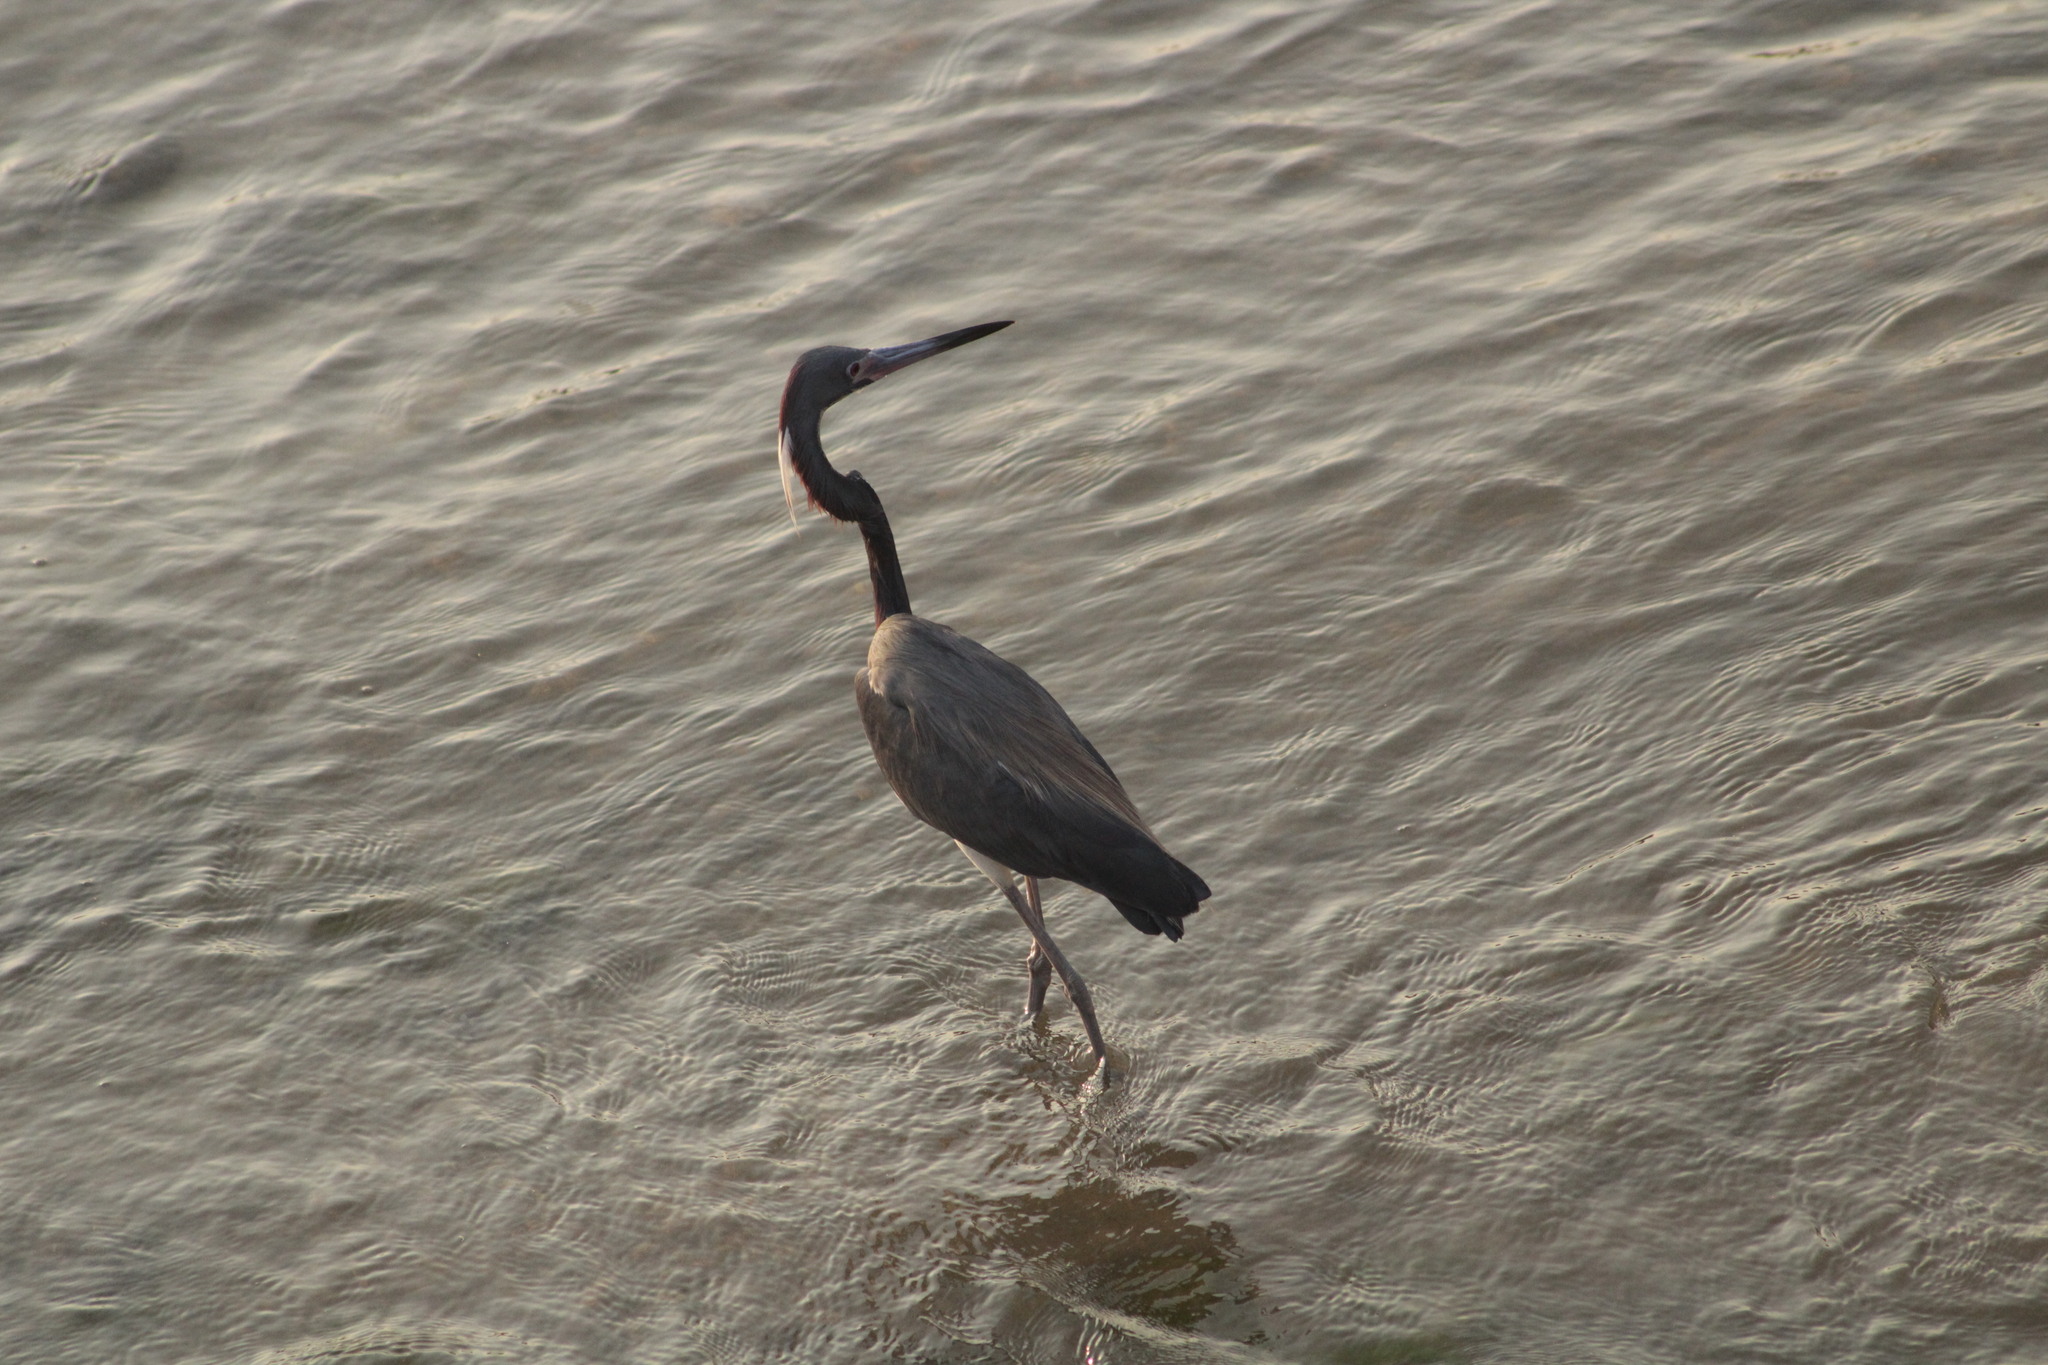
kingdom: Animalia
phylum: Chordata
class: Aves
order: Pelecaniformes
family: Ardeidae
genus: Egretta
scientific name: Egretta tricolor
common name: Tricolored heron
